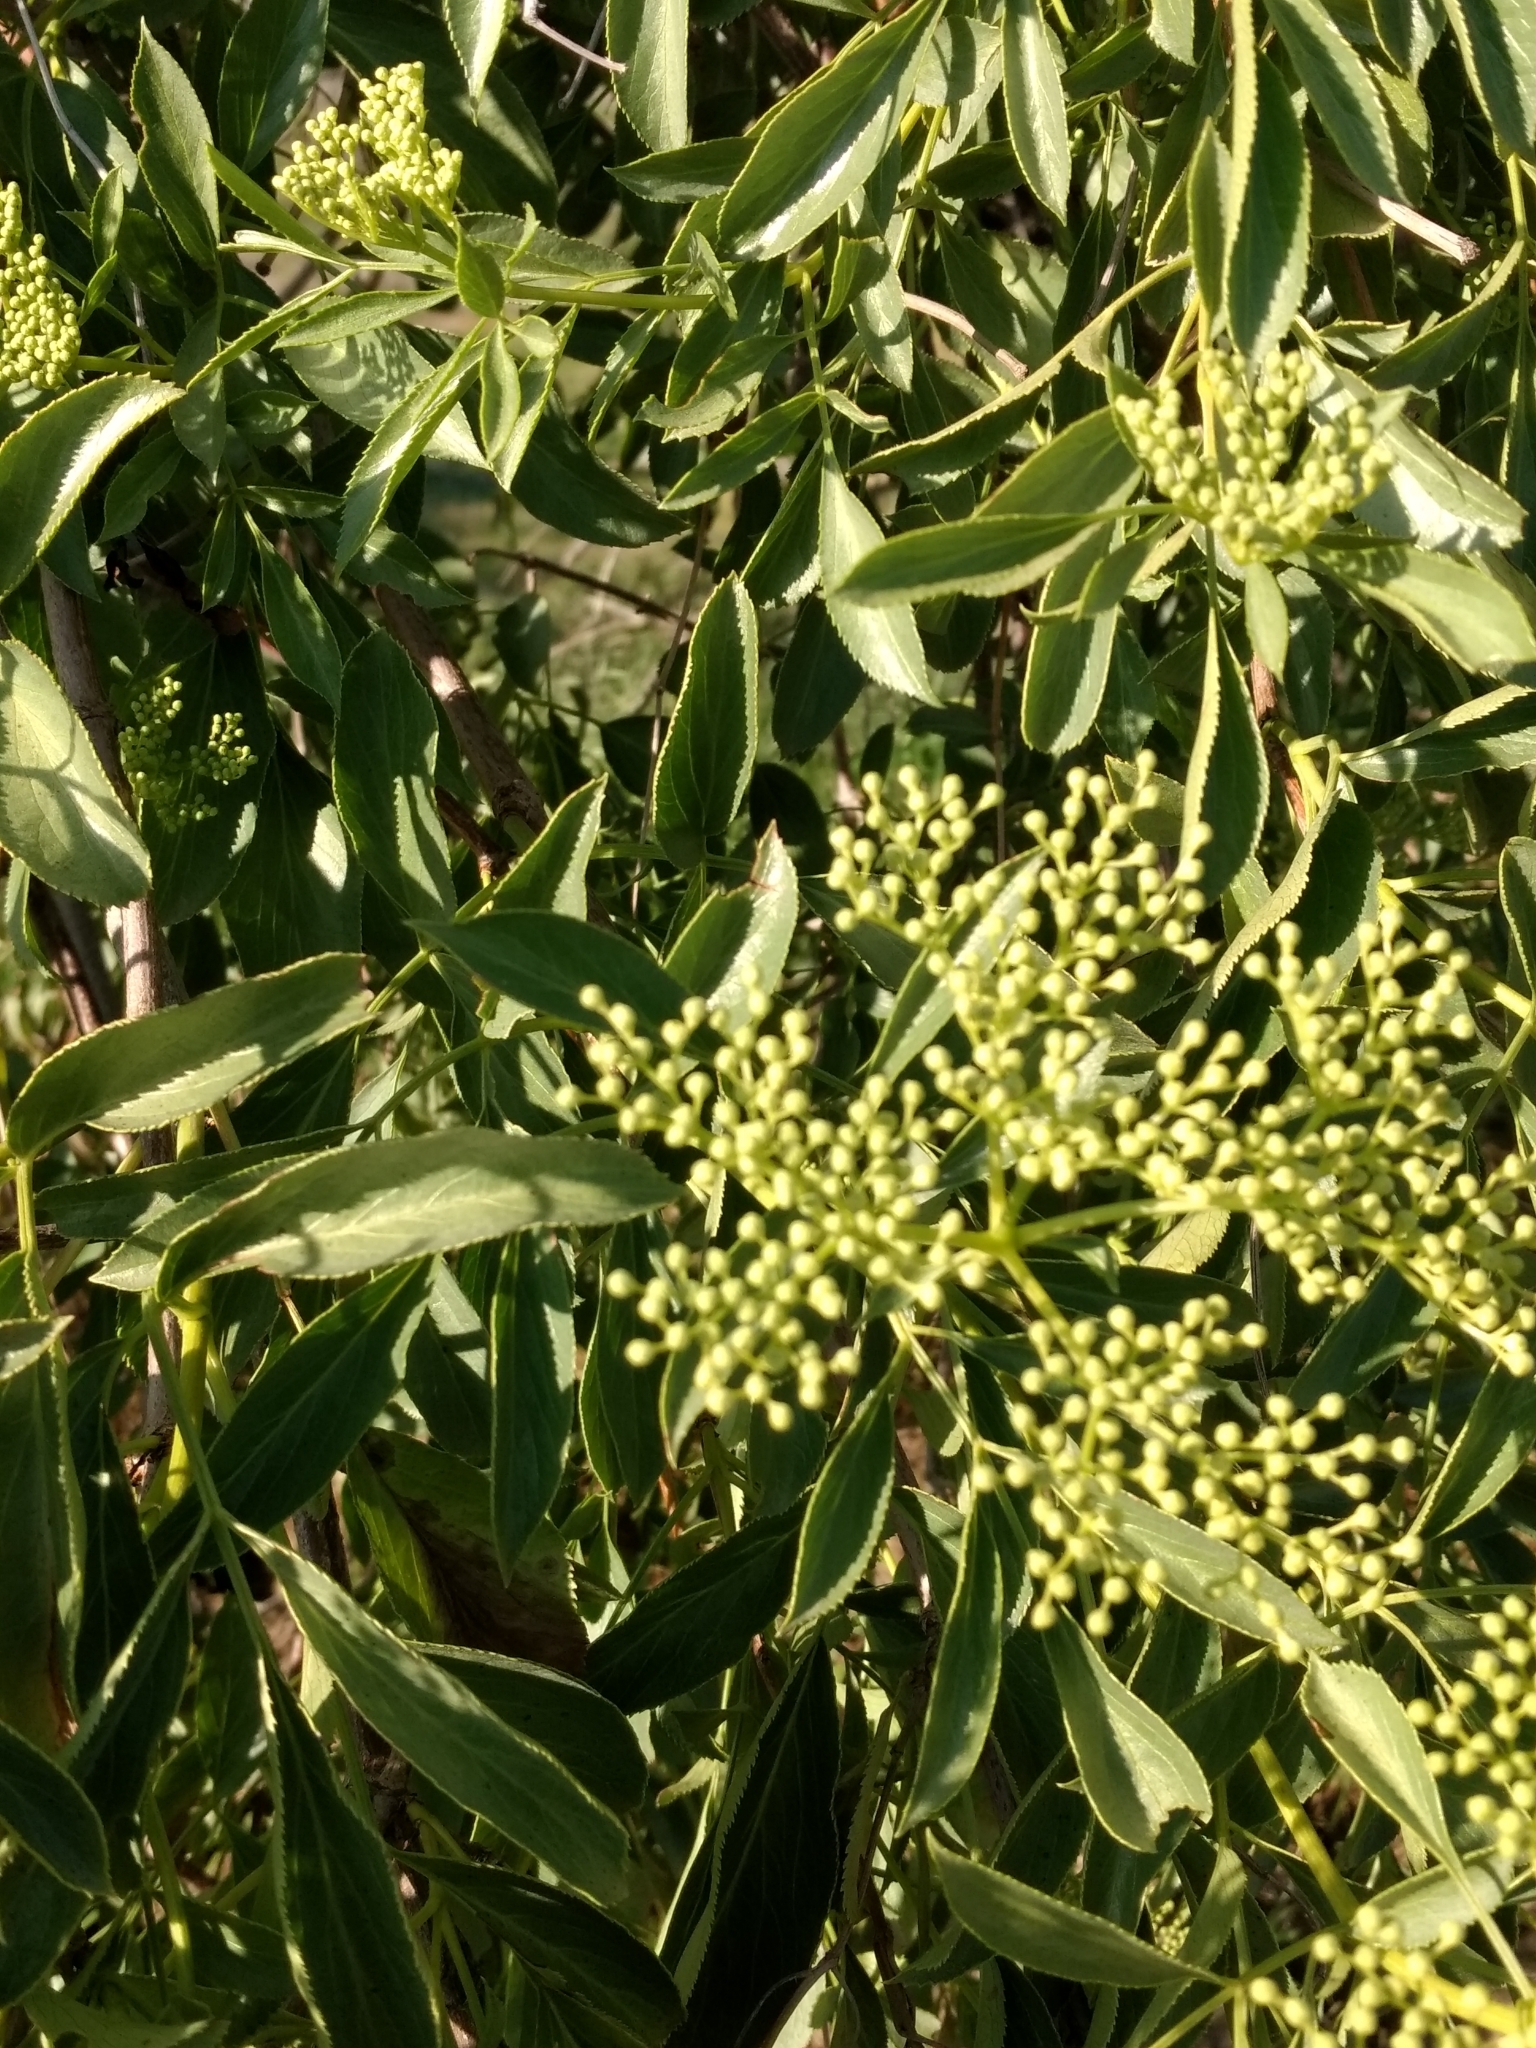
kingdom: Plantae
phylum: Tracheophyta
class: Magnoliopsida
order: Dipsacales
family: Viburnaceae
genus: Sambucus
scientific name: Sambucus cerulea
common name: Blue elder
